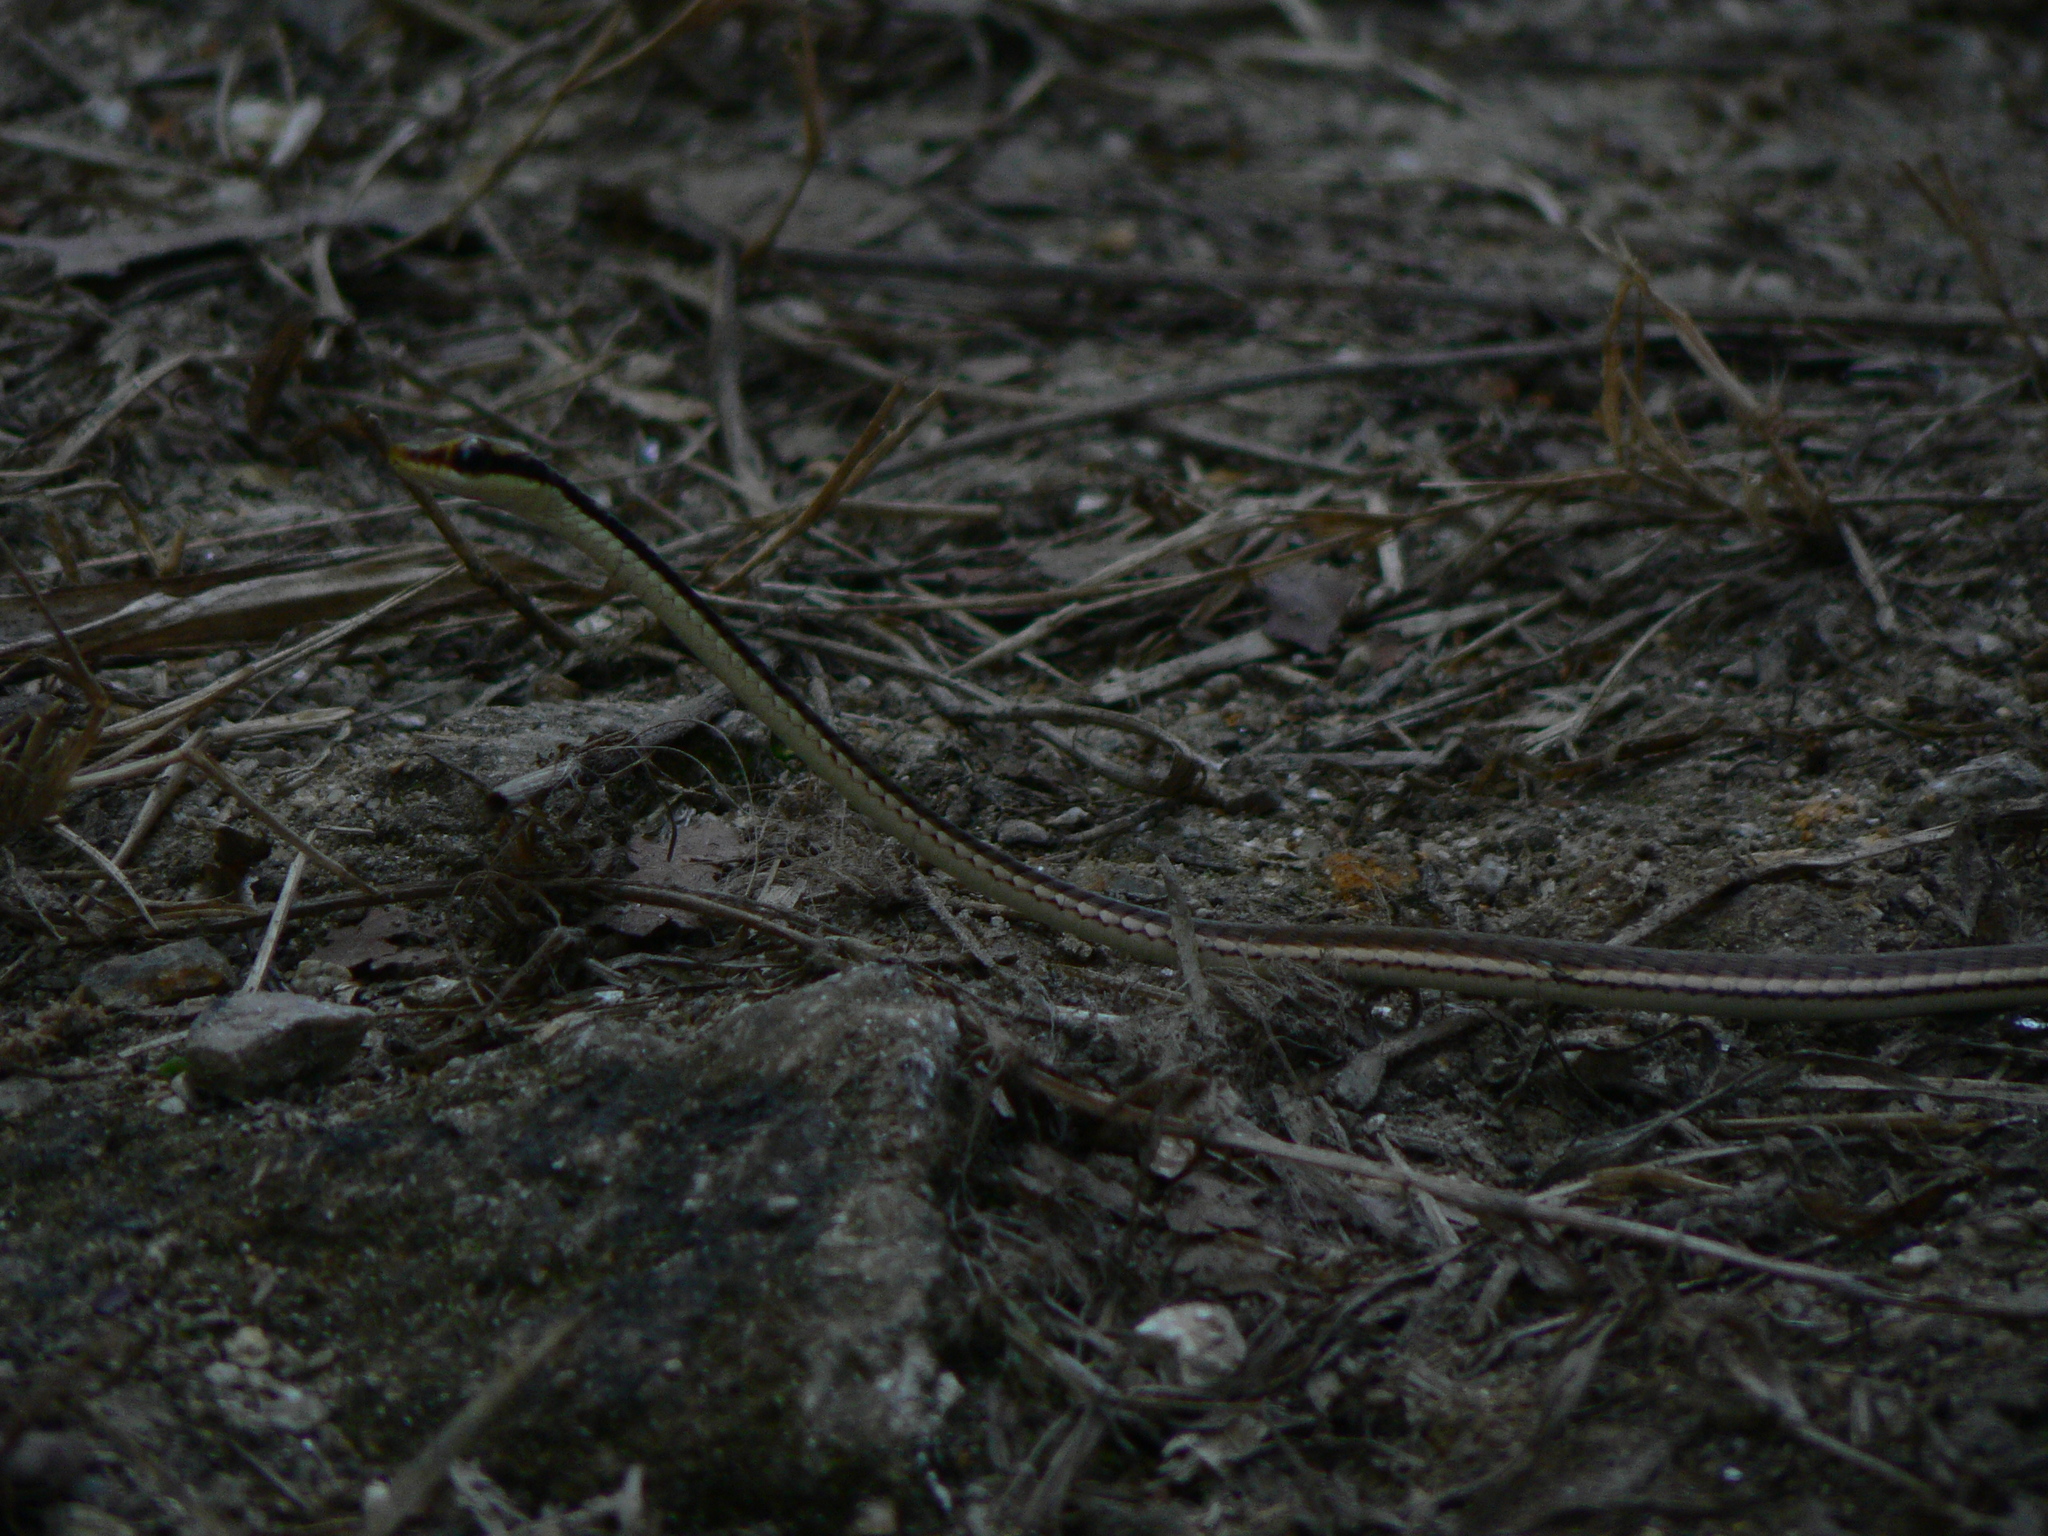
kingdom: Animalia
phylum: Chordata
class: Squamata
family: Colubridae
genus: Dendrelaphis
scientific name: Dendrelaphis pictus
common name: Indonesian bronze-back
